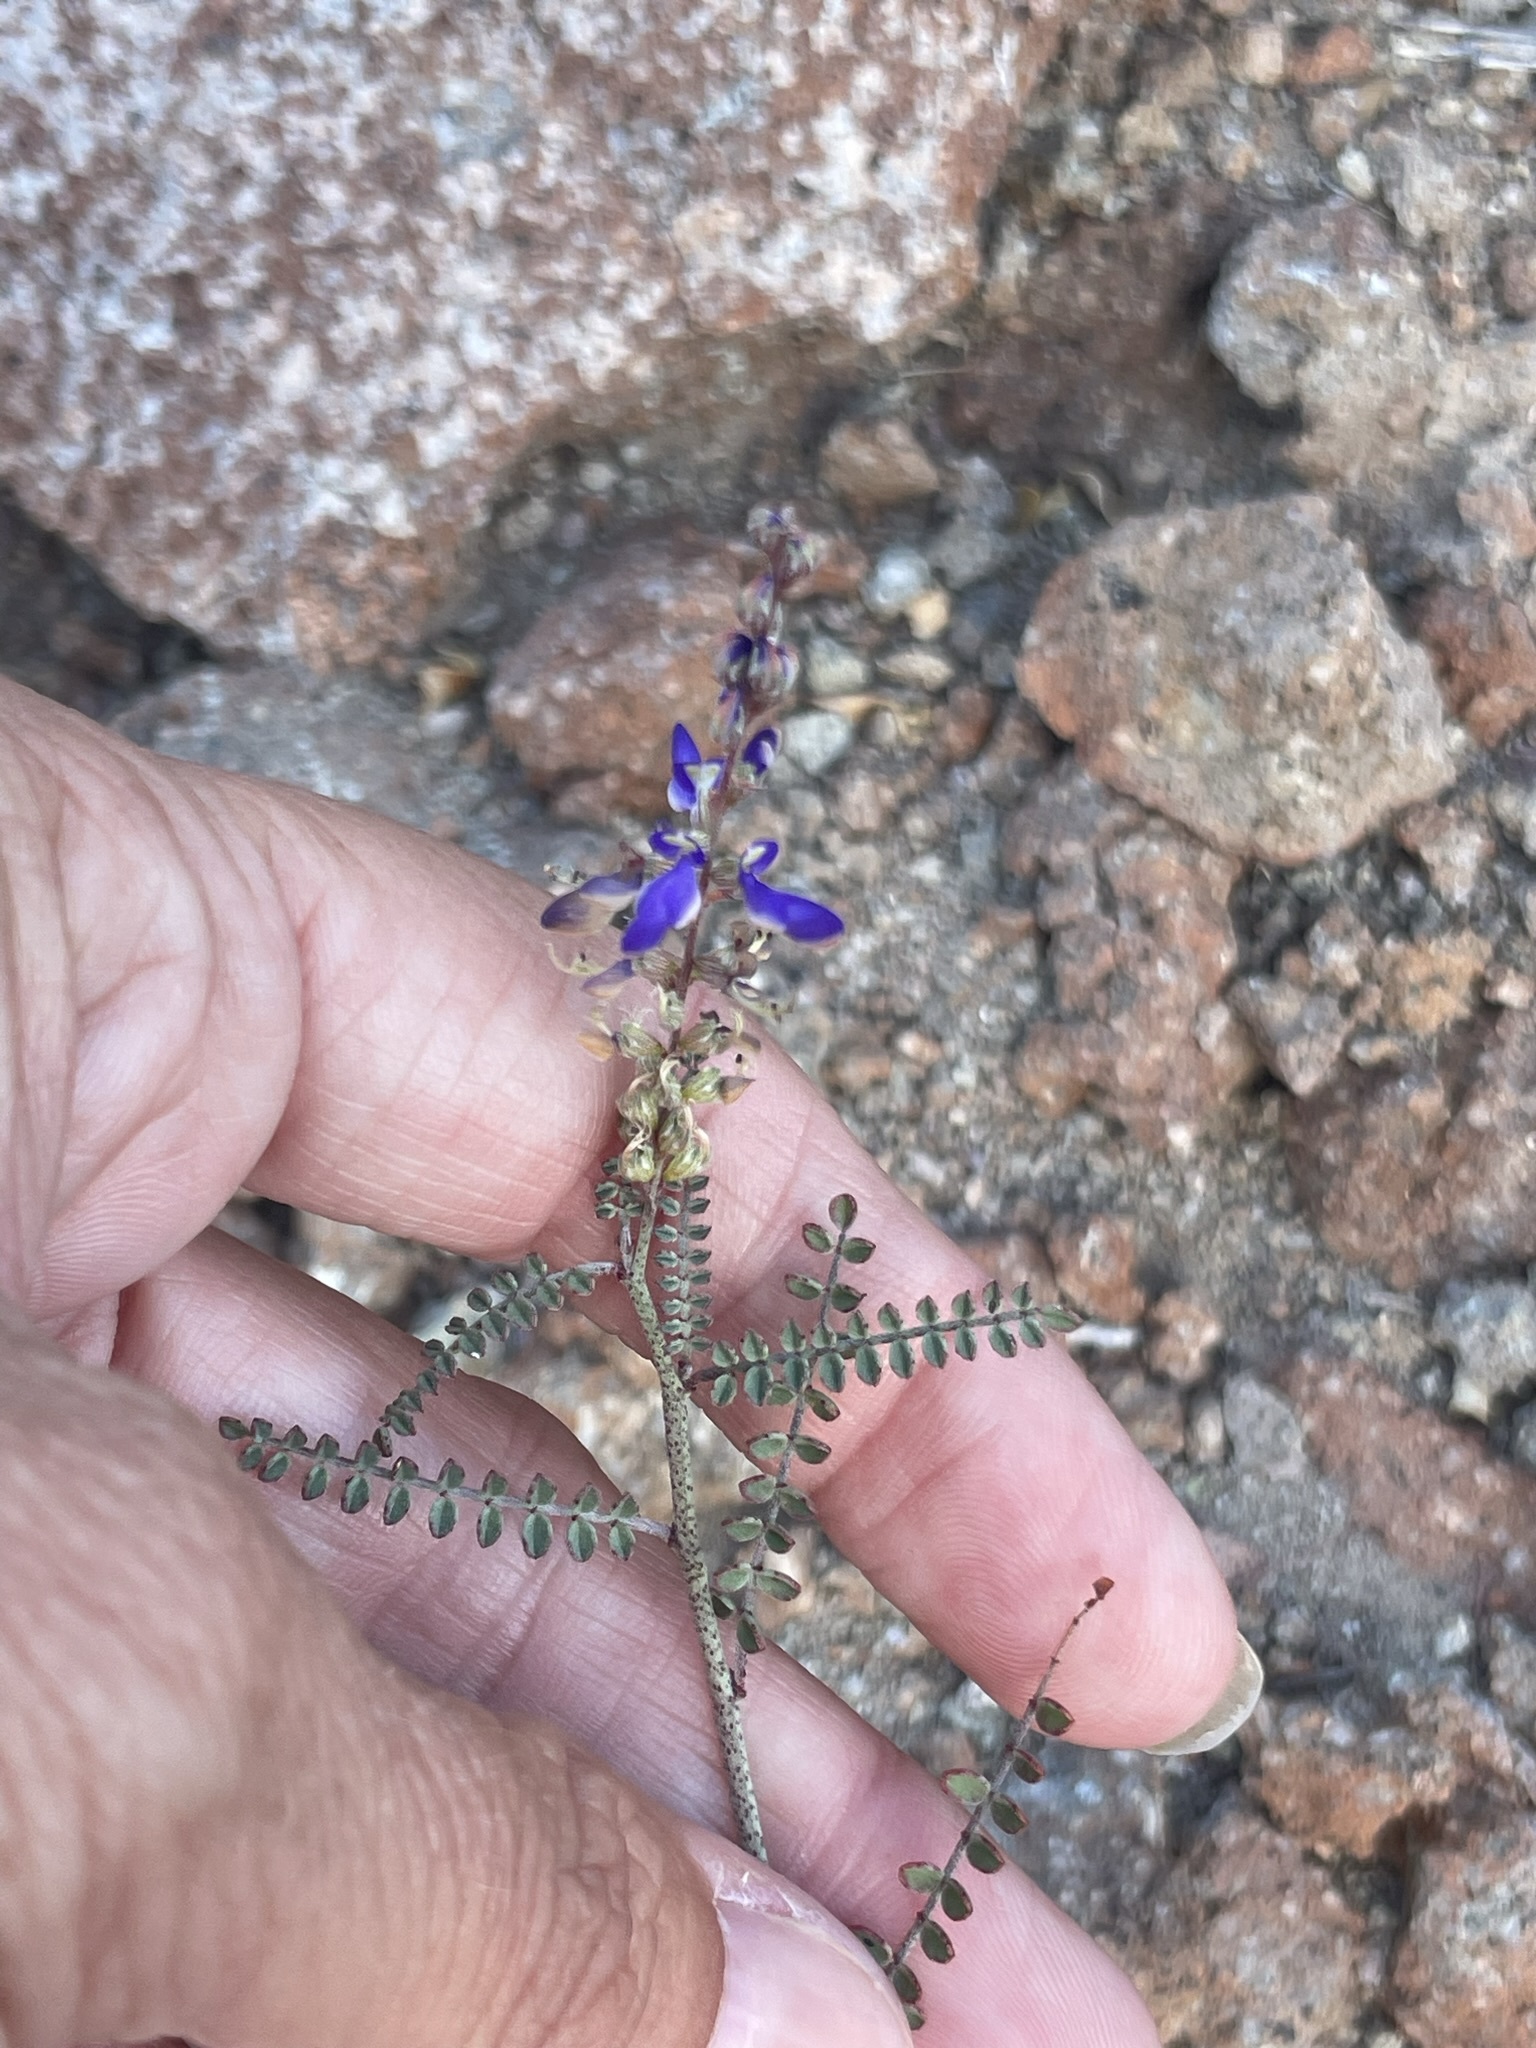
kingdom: Plantae
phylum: Tracheophyta
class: Magnoliopsida
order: Fabales
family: Fabaceae
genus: Marina
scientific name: Marina parryi
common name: Parry's marina
